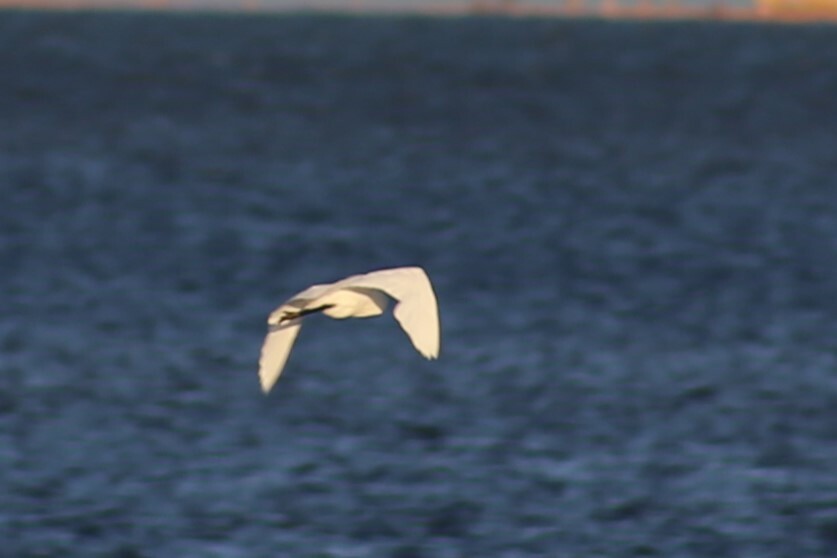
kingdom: Animalia
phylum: Chordata
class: Aves
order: Pelecaniformes
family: Ardeidae
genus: Egretta
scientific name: Egretta garzetta
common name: Little egret
